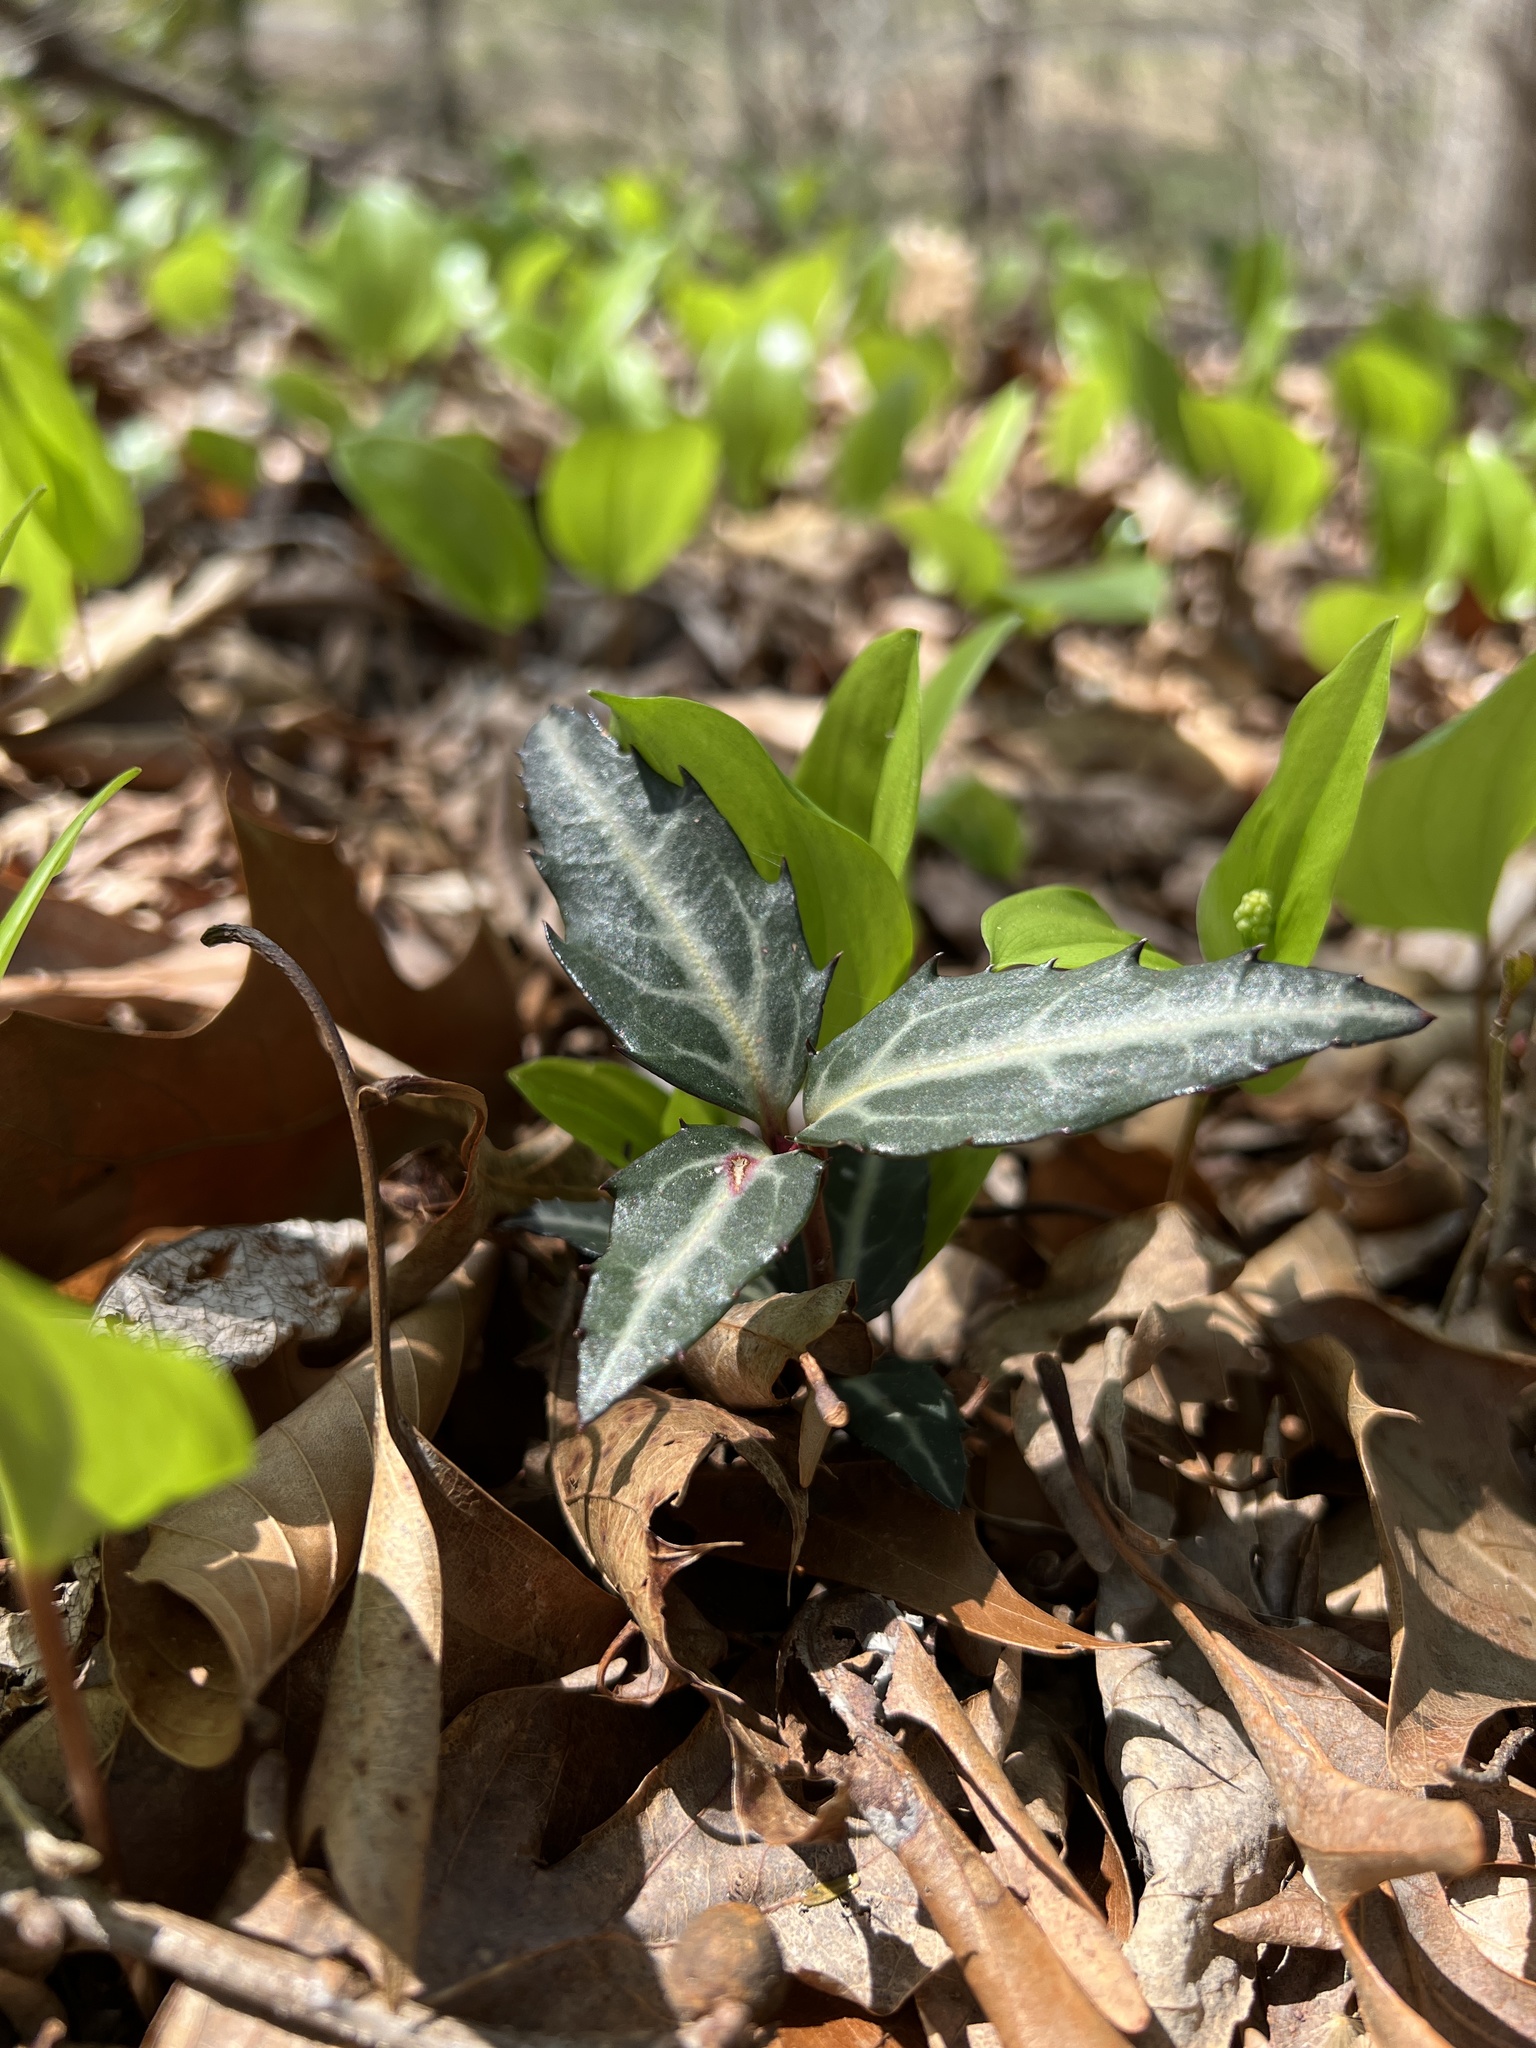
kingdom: Plantae
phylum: Tracheophyta
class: Magnoliopsida
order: Ericales
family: Ericaceae
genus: Chimaphila
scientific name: Chimaphila maculata
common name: Spotted pipsissewa
